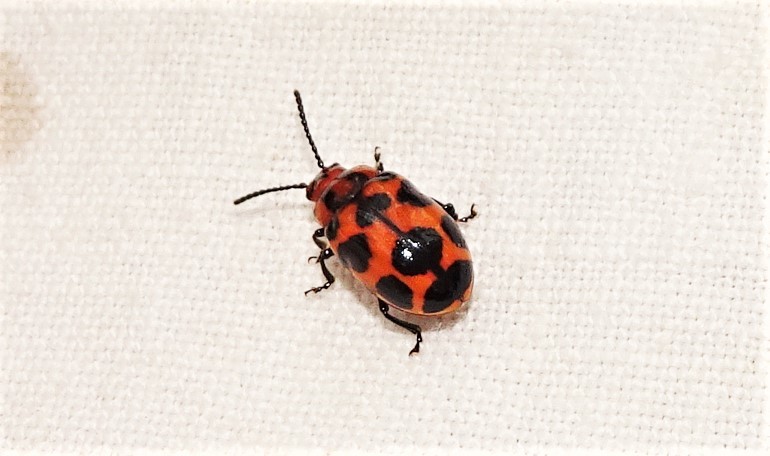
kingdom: Animalia
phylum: Arthropoda
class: Insecta
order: Coleoptera
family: Chrysomelidae
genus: Phyllocharis
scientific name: Phyllocharis
